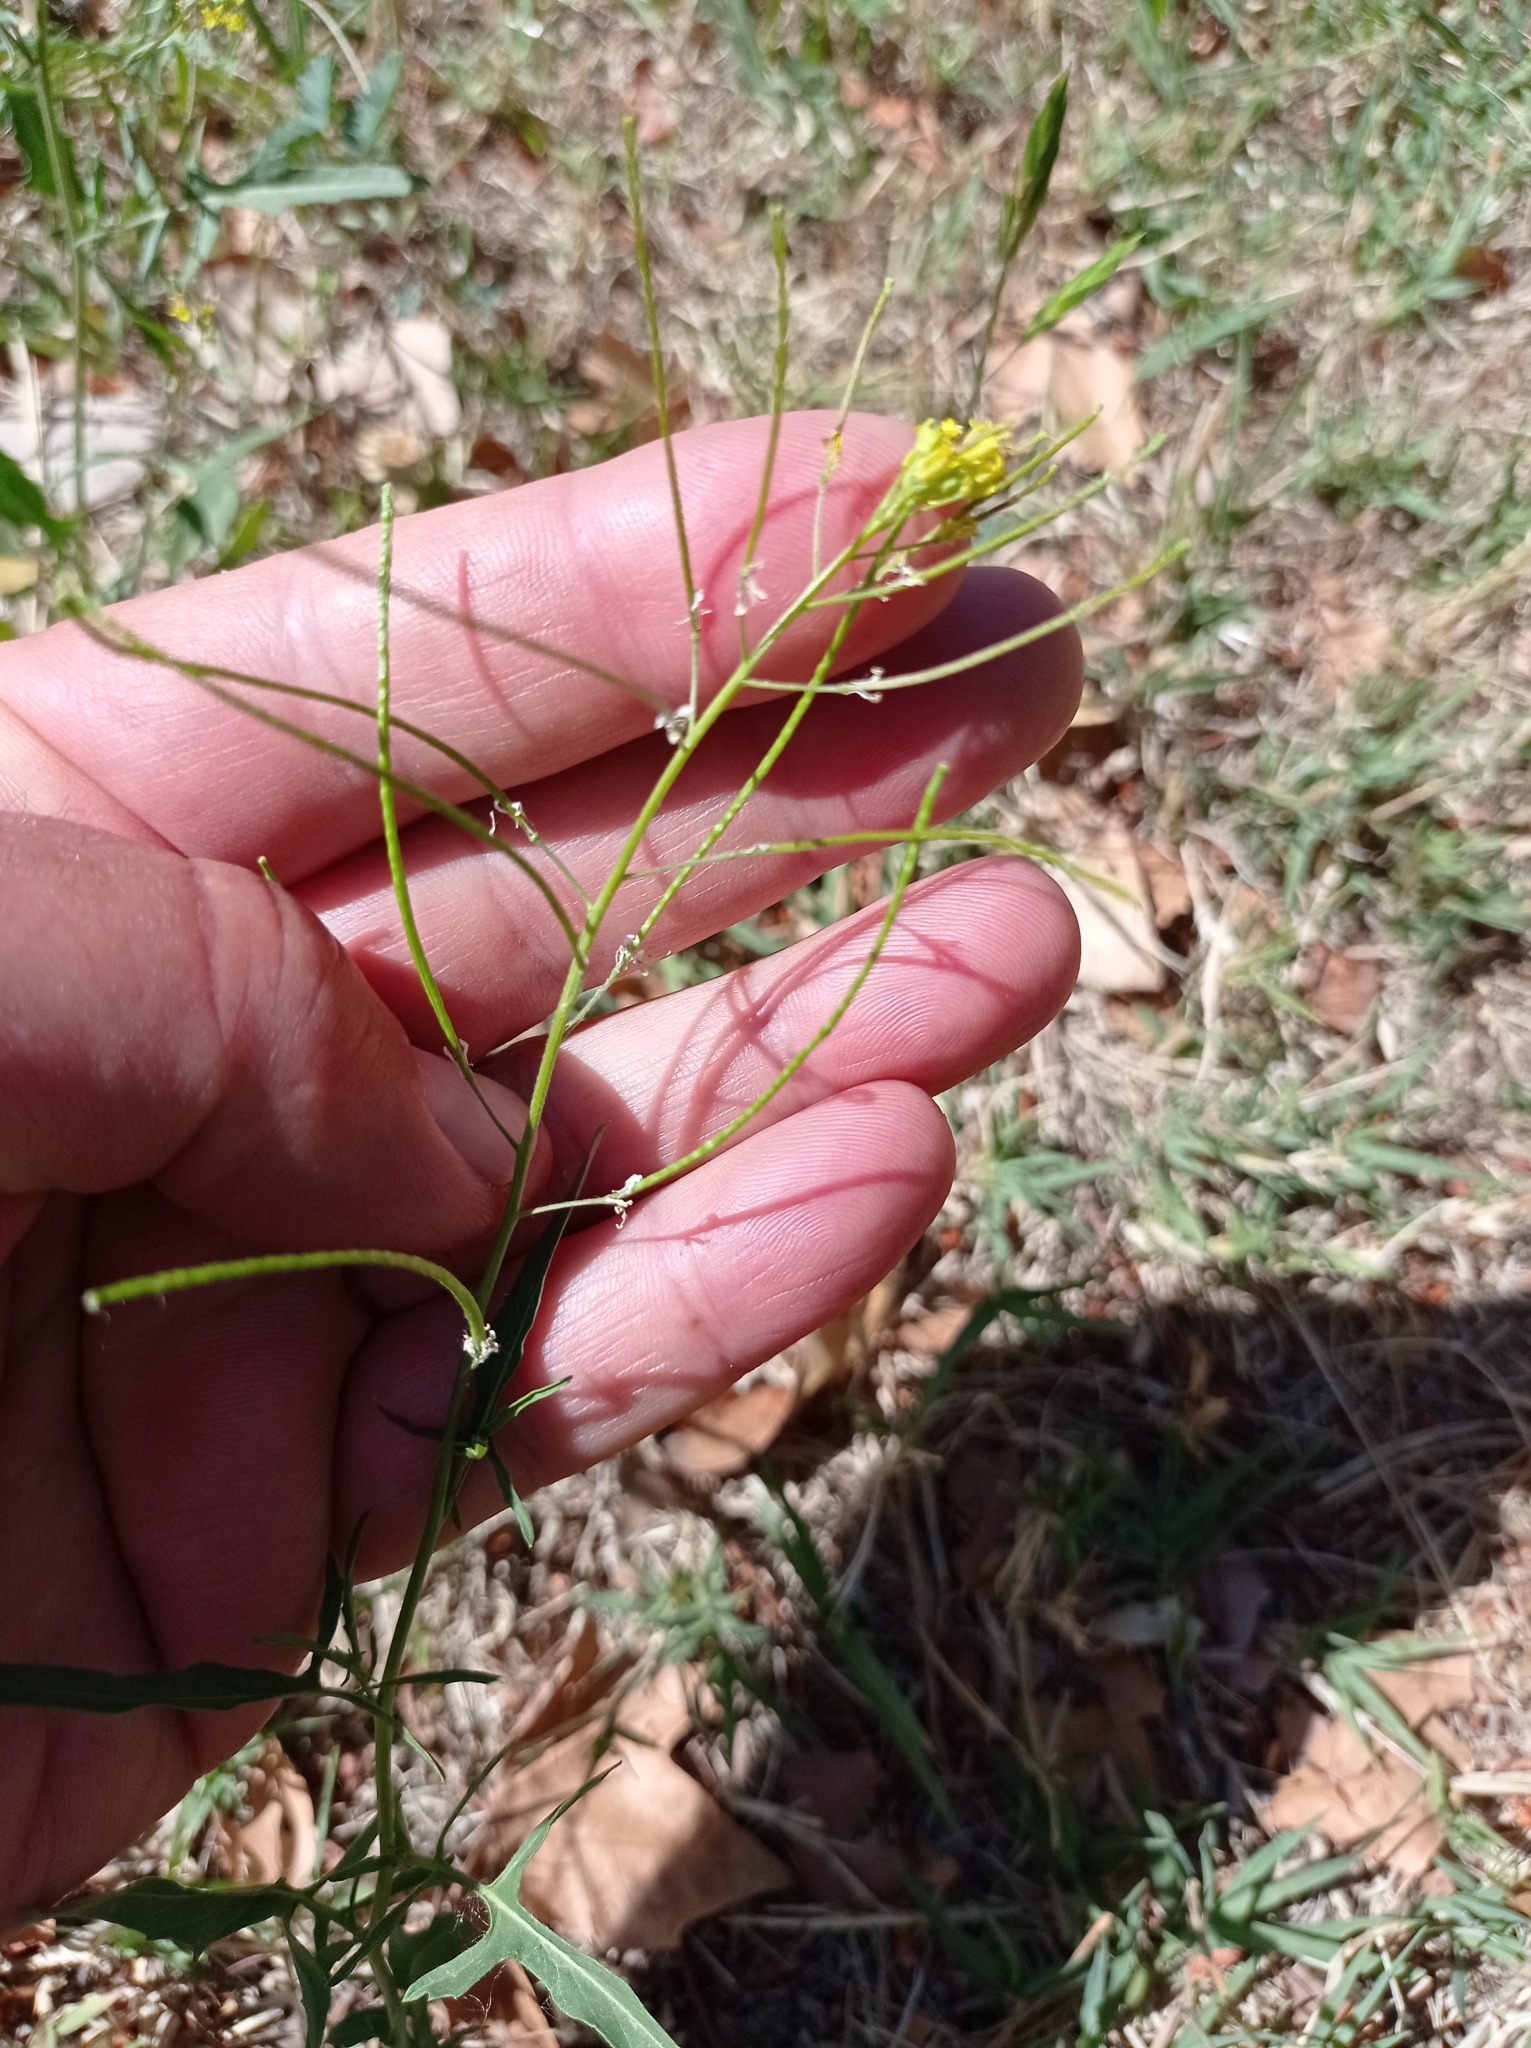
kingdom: Plantae
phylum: Tracheophyta
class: Magnoliopsida
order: Brassicales
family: Brassicaceae
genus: Sisymbrium
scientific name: Sisymbrium irio
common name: London rocket
